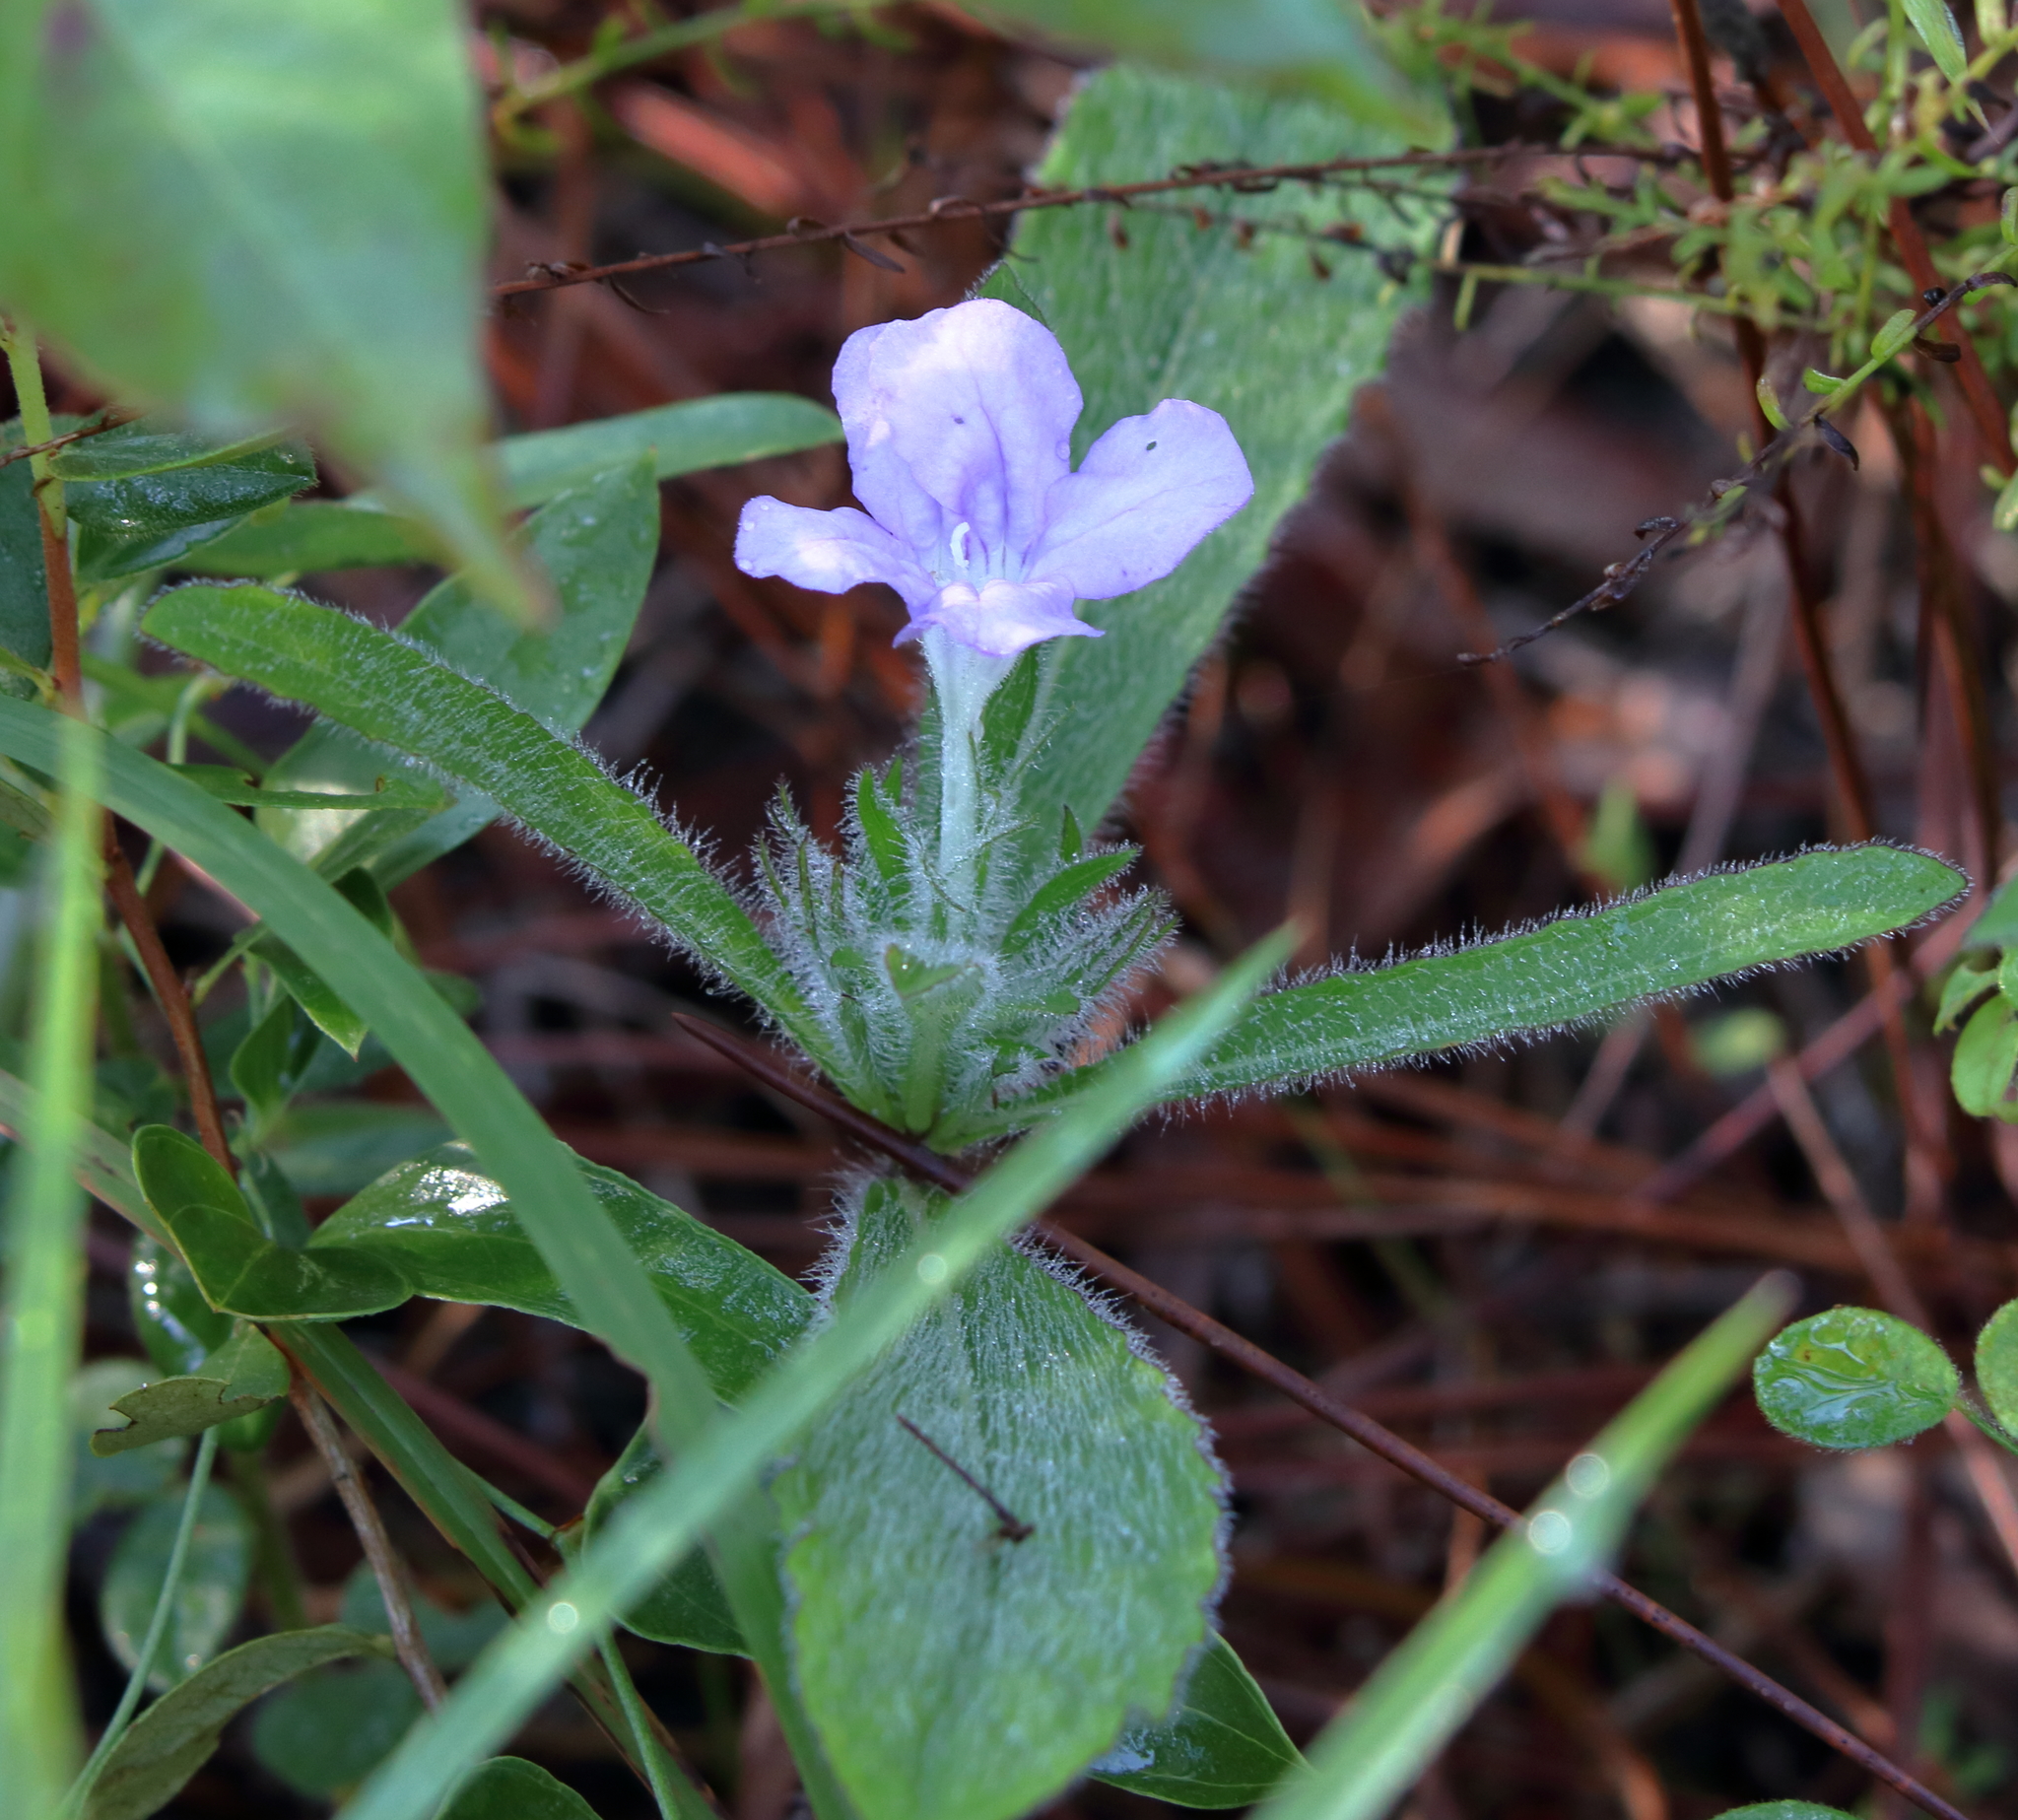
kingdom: Plantae
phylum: Tracheophyta
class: Magnoliopsida
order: Lamiales
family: Acanthaceae
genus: Ruellia
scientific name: Ruellia caroliniensis
